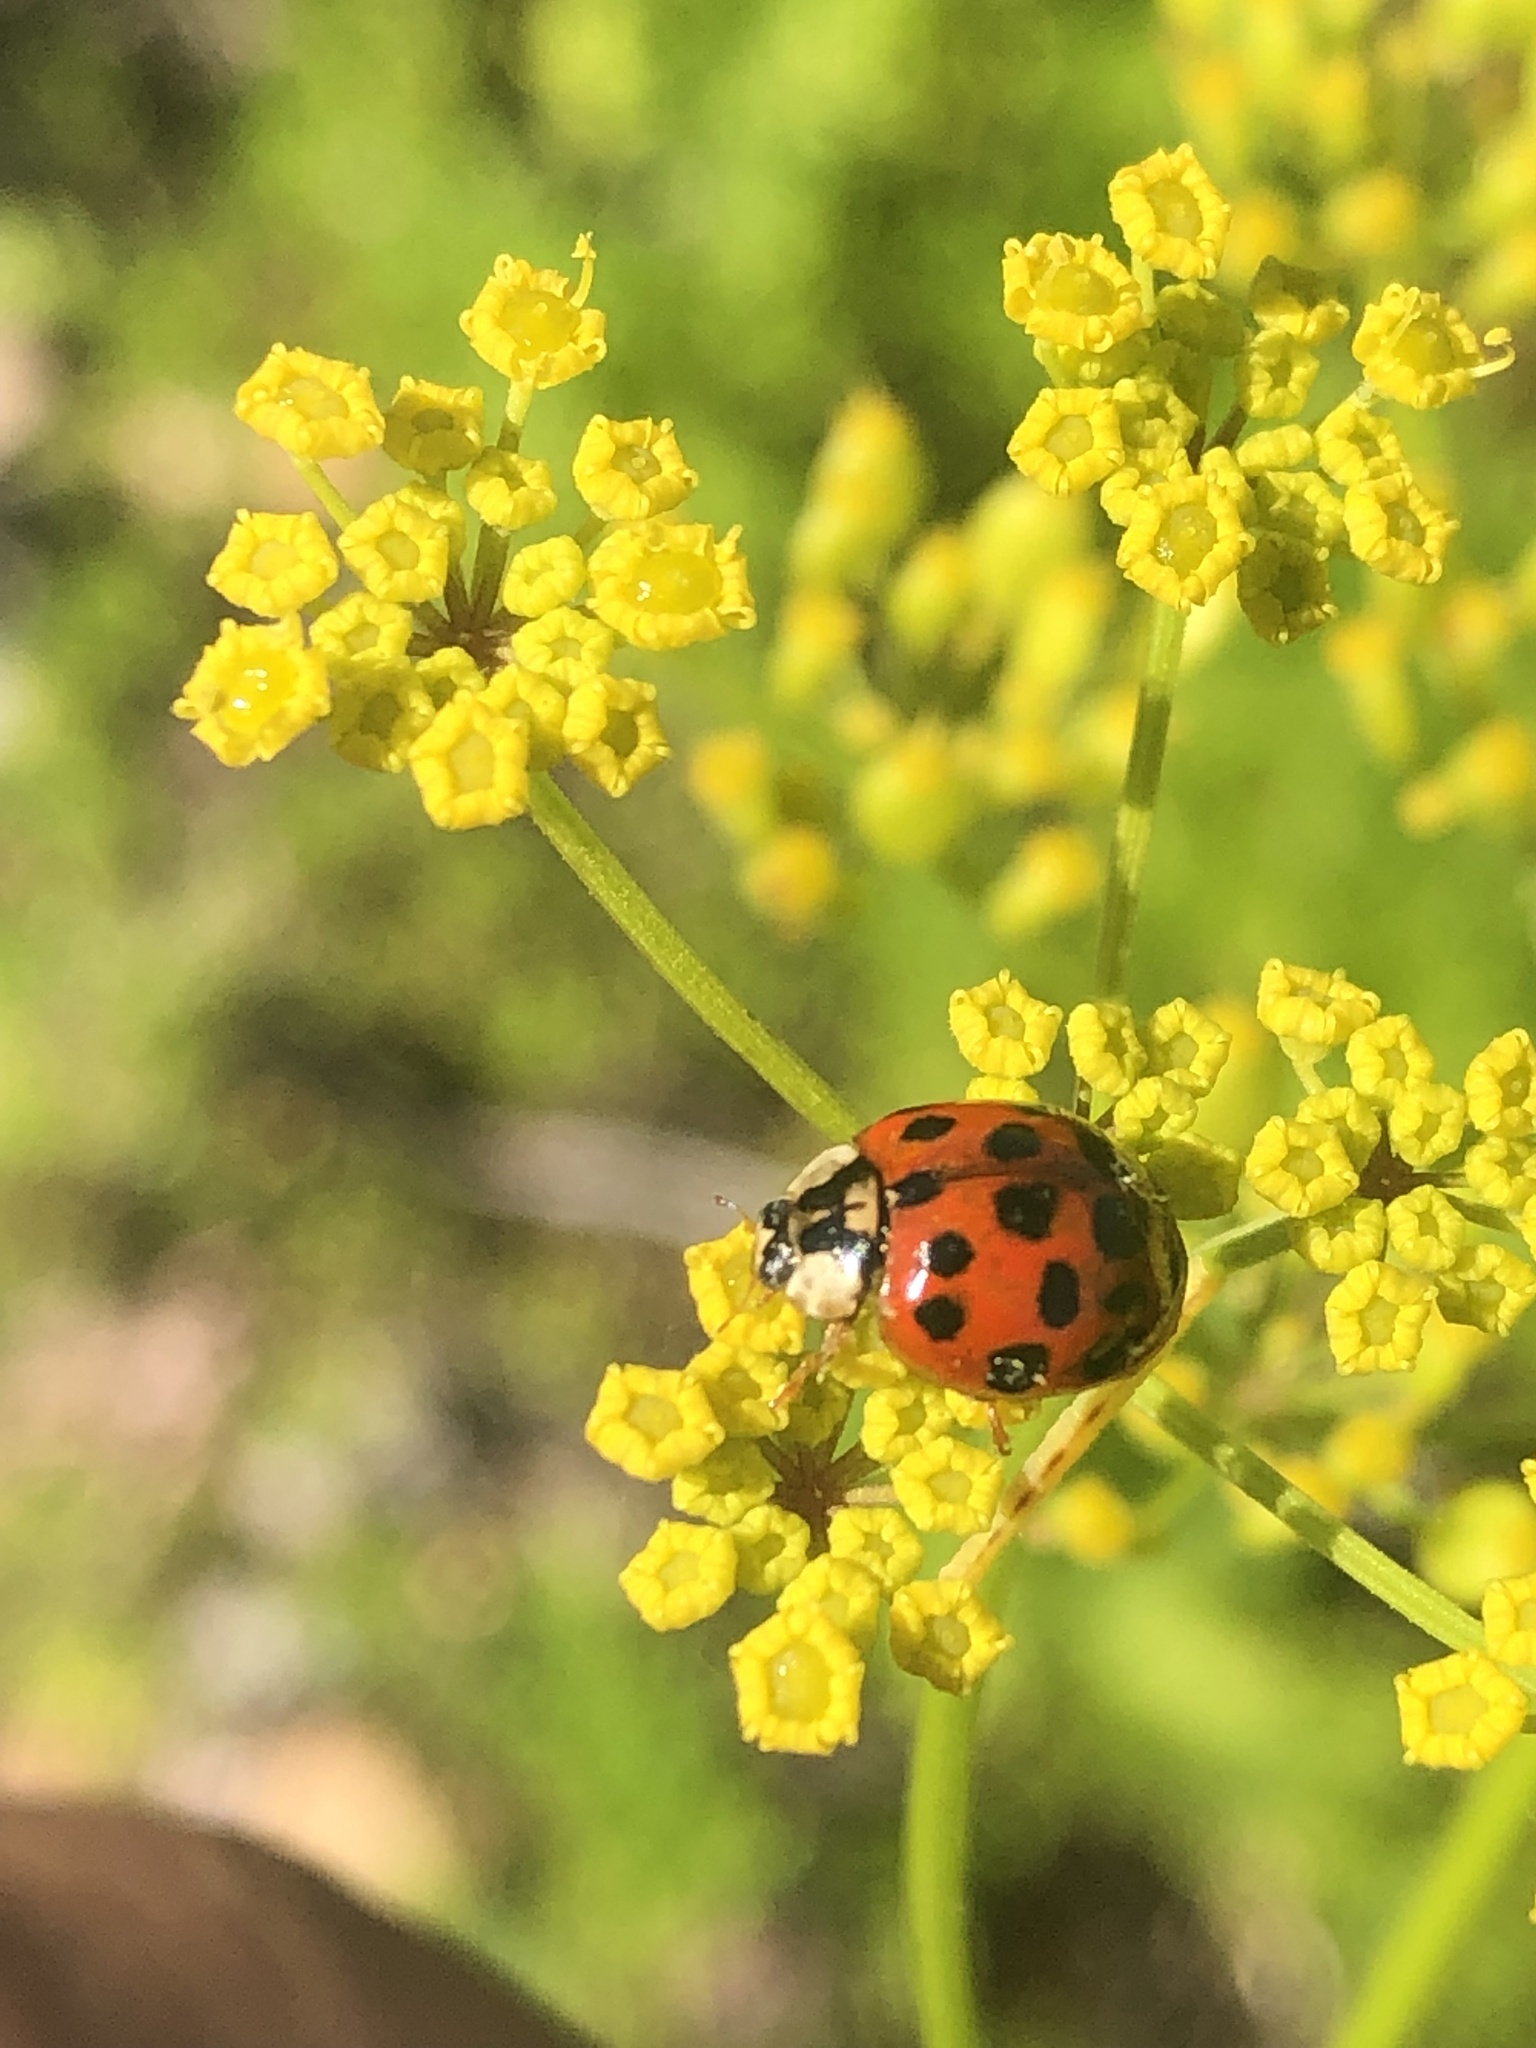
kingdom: Animalia
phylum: Arthropoda
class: Insecta
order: Coleoptera
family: Coccinellidae
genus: Harmonia
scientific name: Harmonia axyridis
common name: Harlequin ladybird
